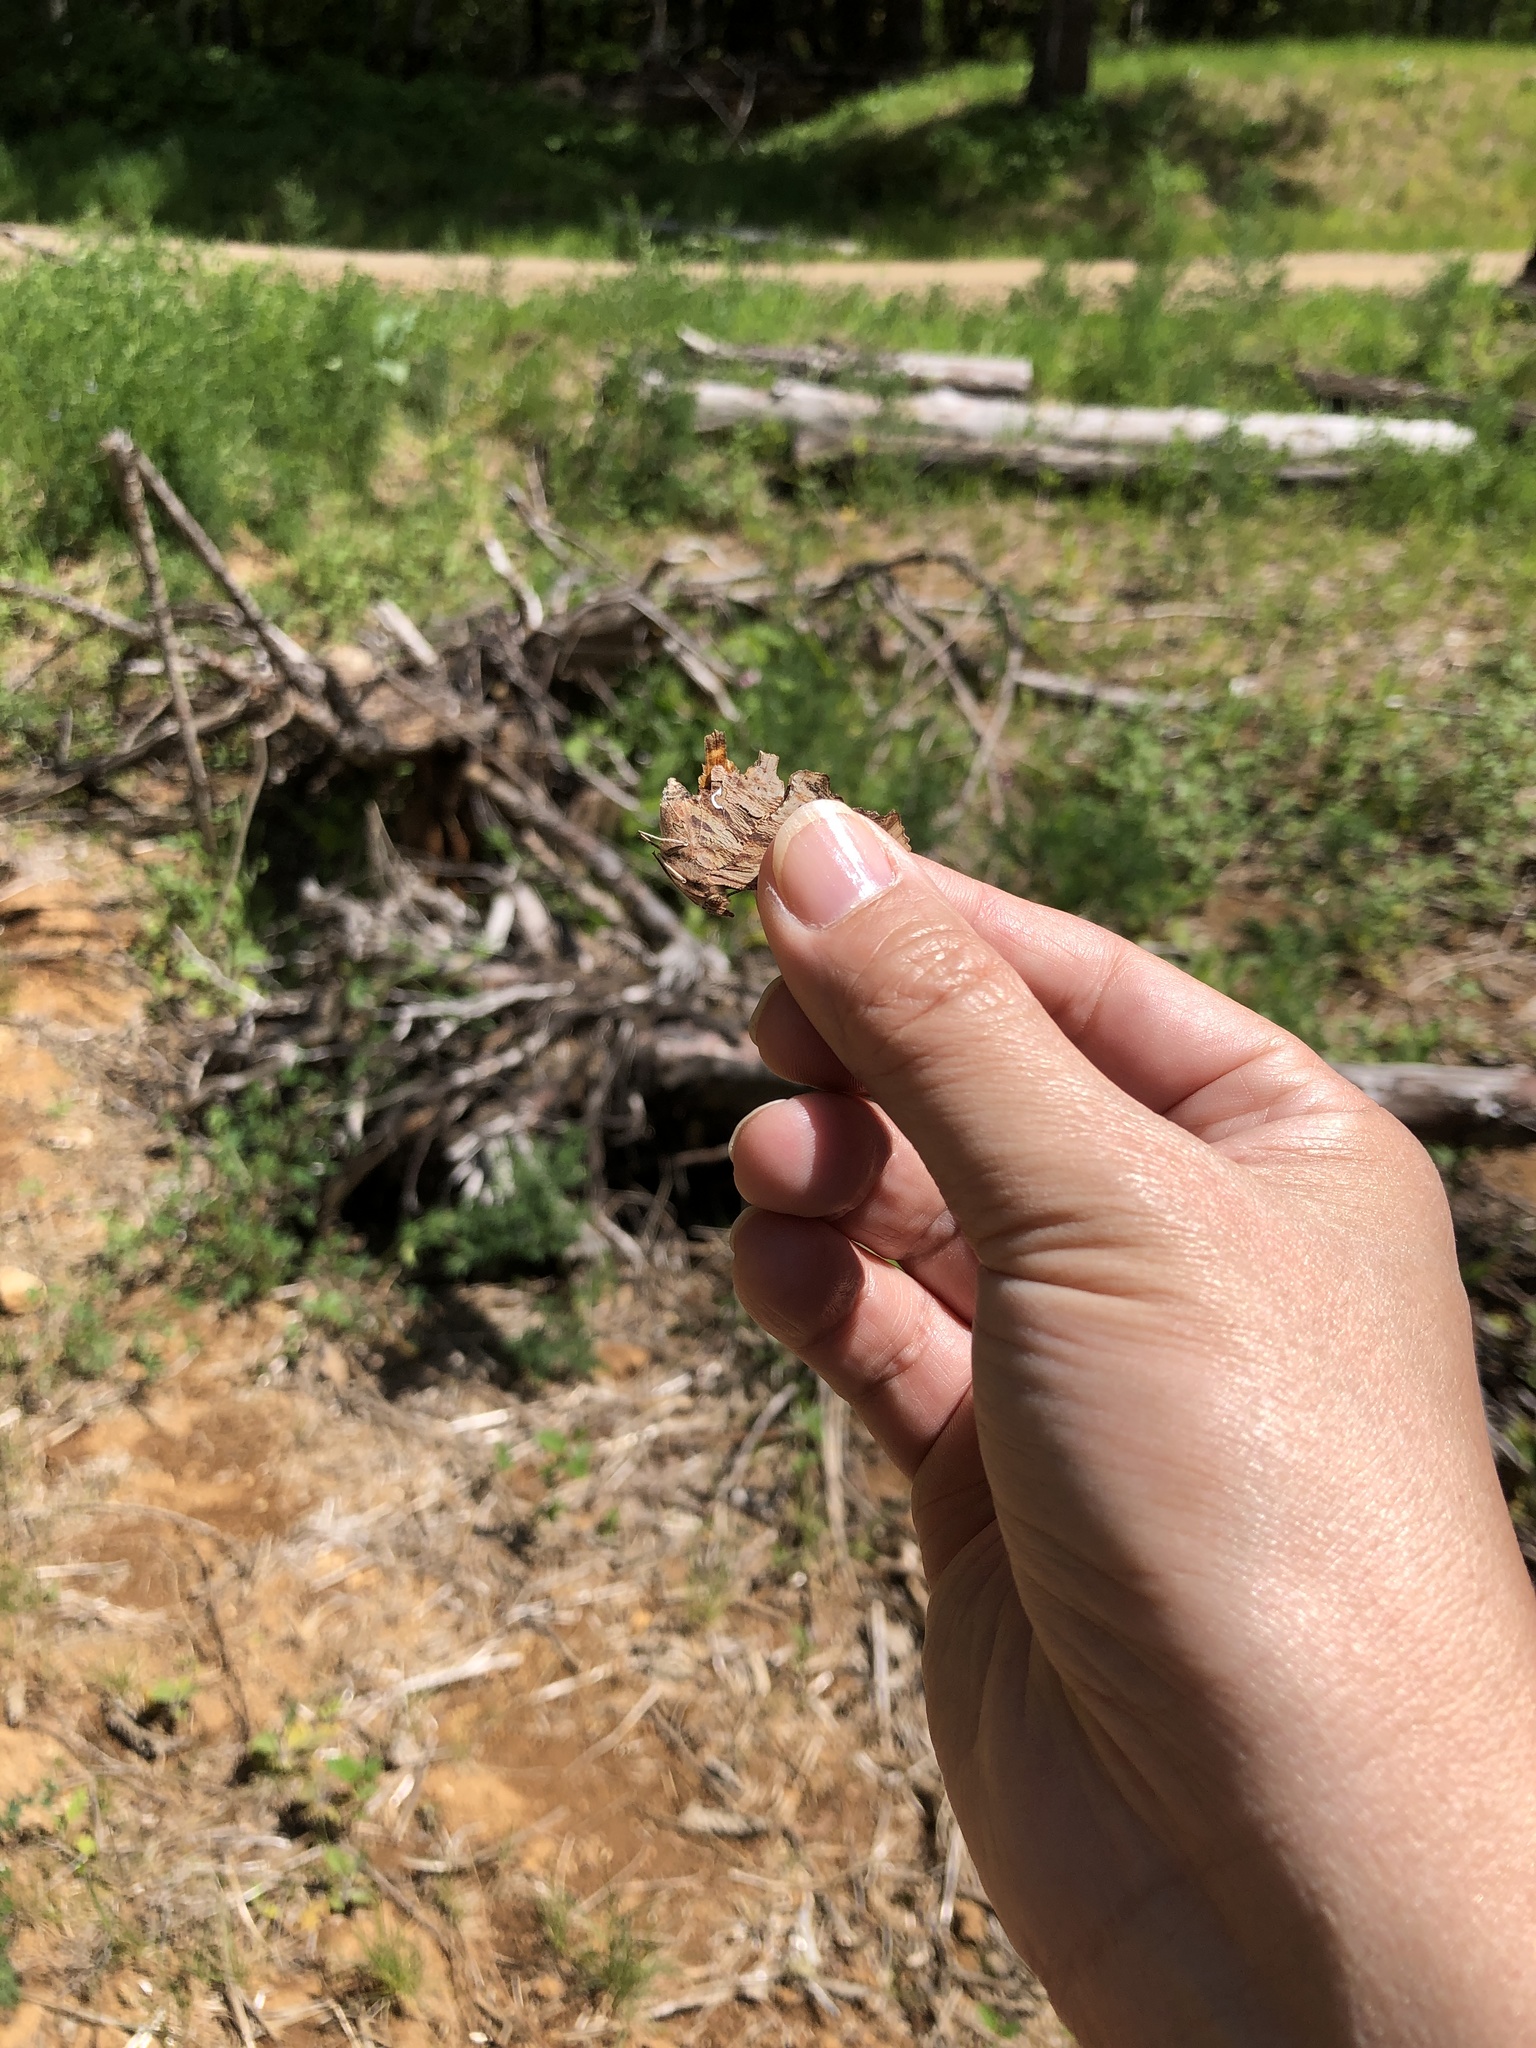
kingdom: Animalia
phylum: Arthropoda
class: Insecta
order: Lepidoptera
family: Nymphalidae
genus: Polygonia
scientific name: Polygonia satyrus
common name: Satyr angle wing
